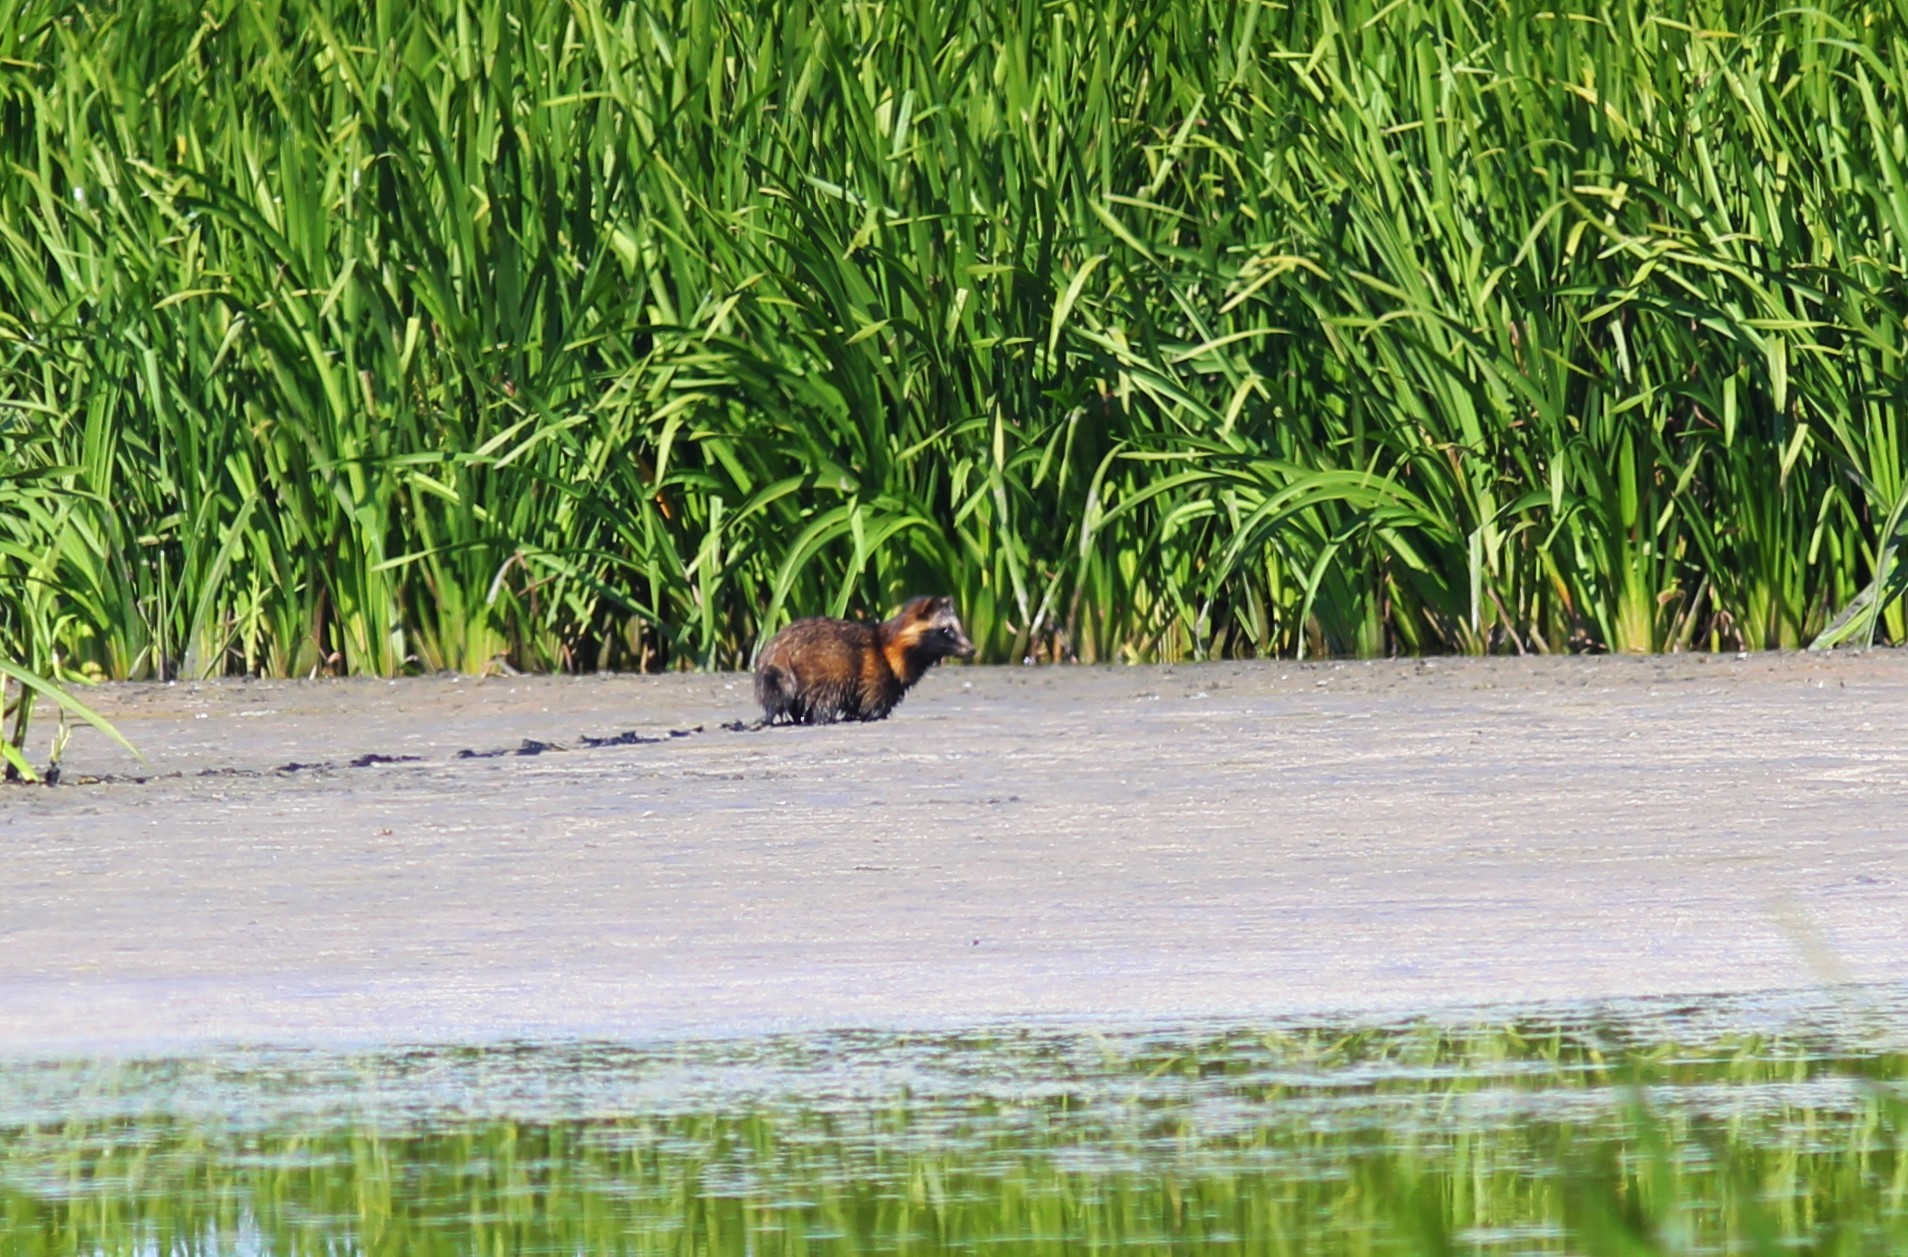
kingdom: Animalia
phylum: Chordata
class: Mammalia
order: Carnivora
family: Canidae
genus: Nyctereutes
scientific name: Nyctereutes procyonoides
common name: Raccoon dog
